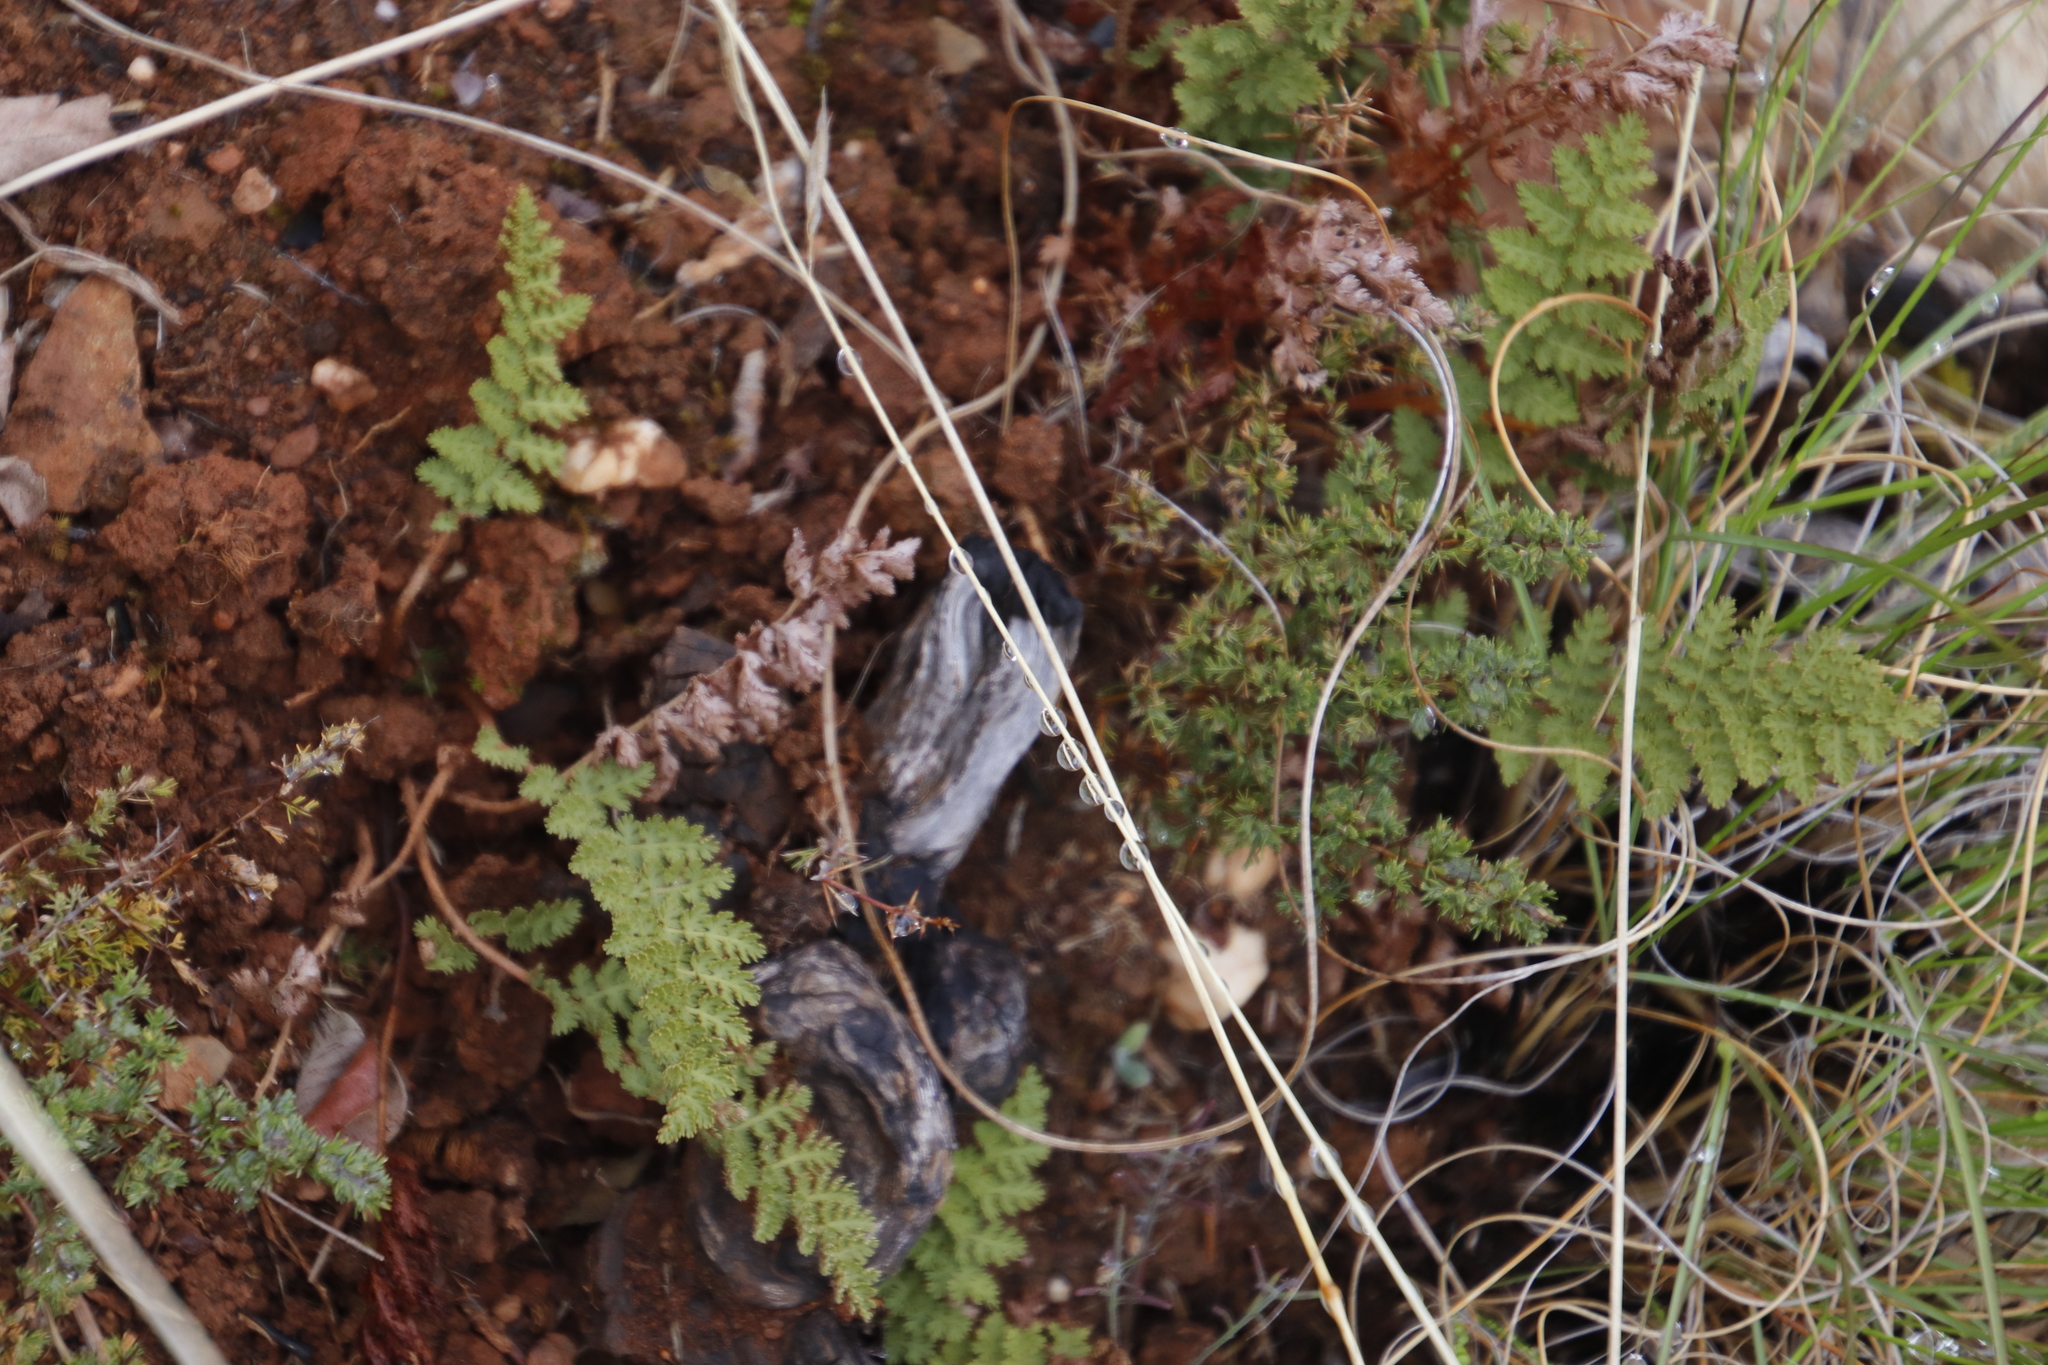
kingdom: Plantae
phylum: Tracheophyta
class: Polypodiopsida
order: Schizaeales
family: Anemiaceae
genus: Anemia
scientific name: Anemia caffrorum
